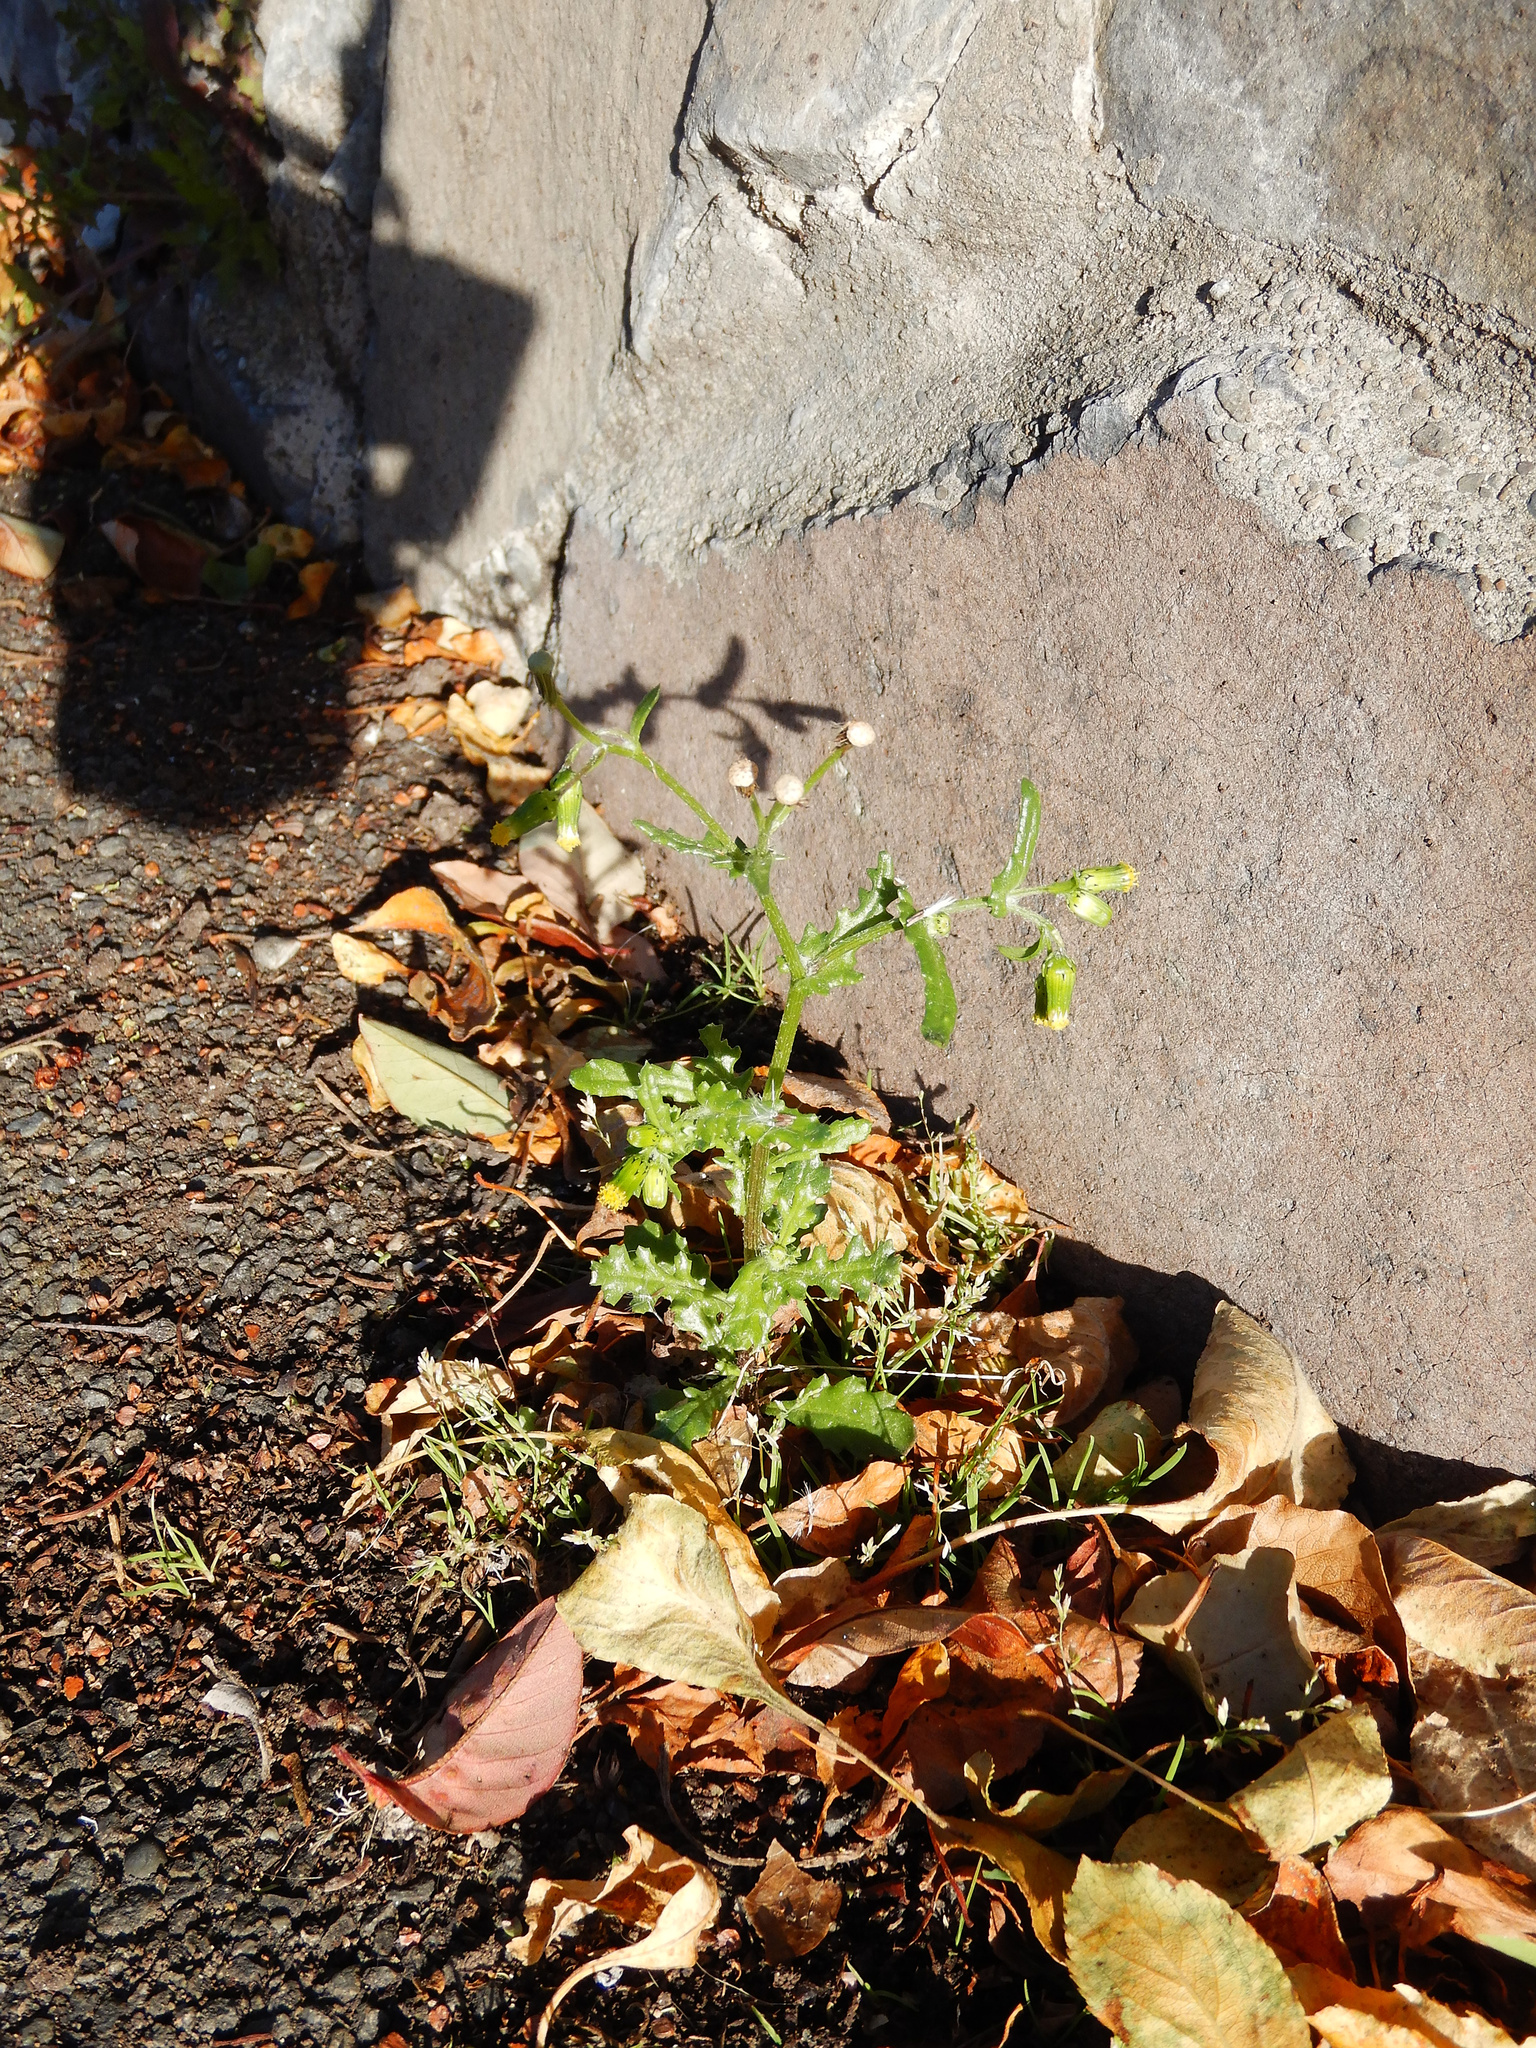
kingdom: Plantae
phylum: Tracheophyta
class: Magnoliopsida
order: Asterales
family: Asteraceae
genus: Senecio
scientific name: Senecio vulgaris
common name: Old-man-in-the-spring
